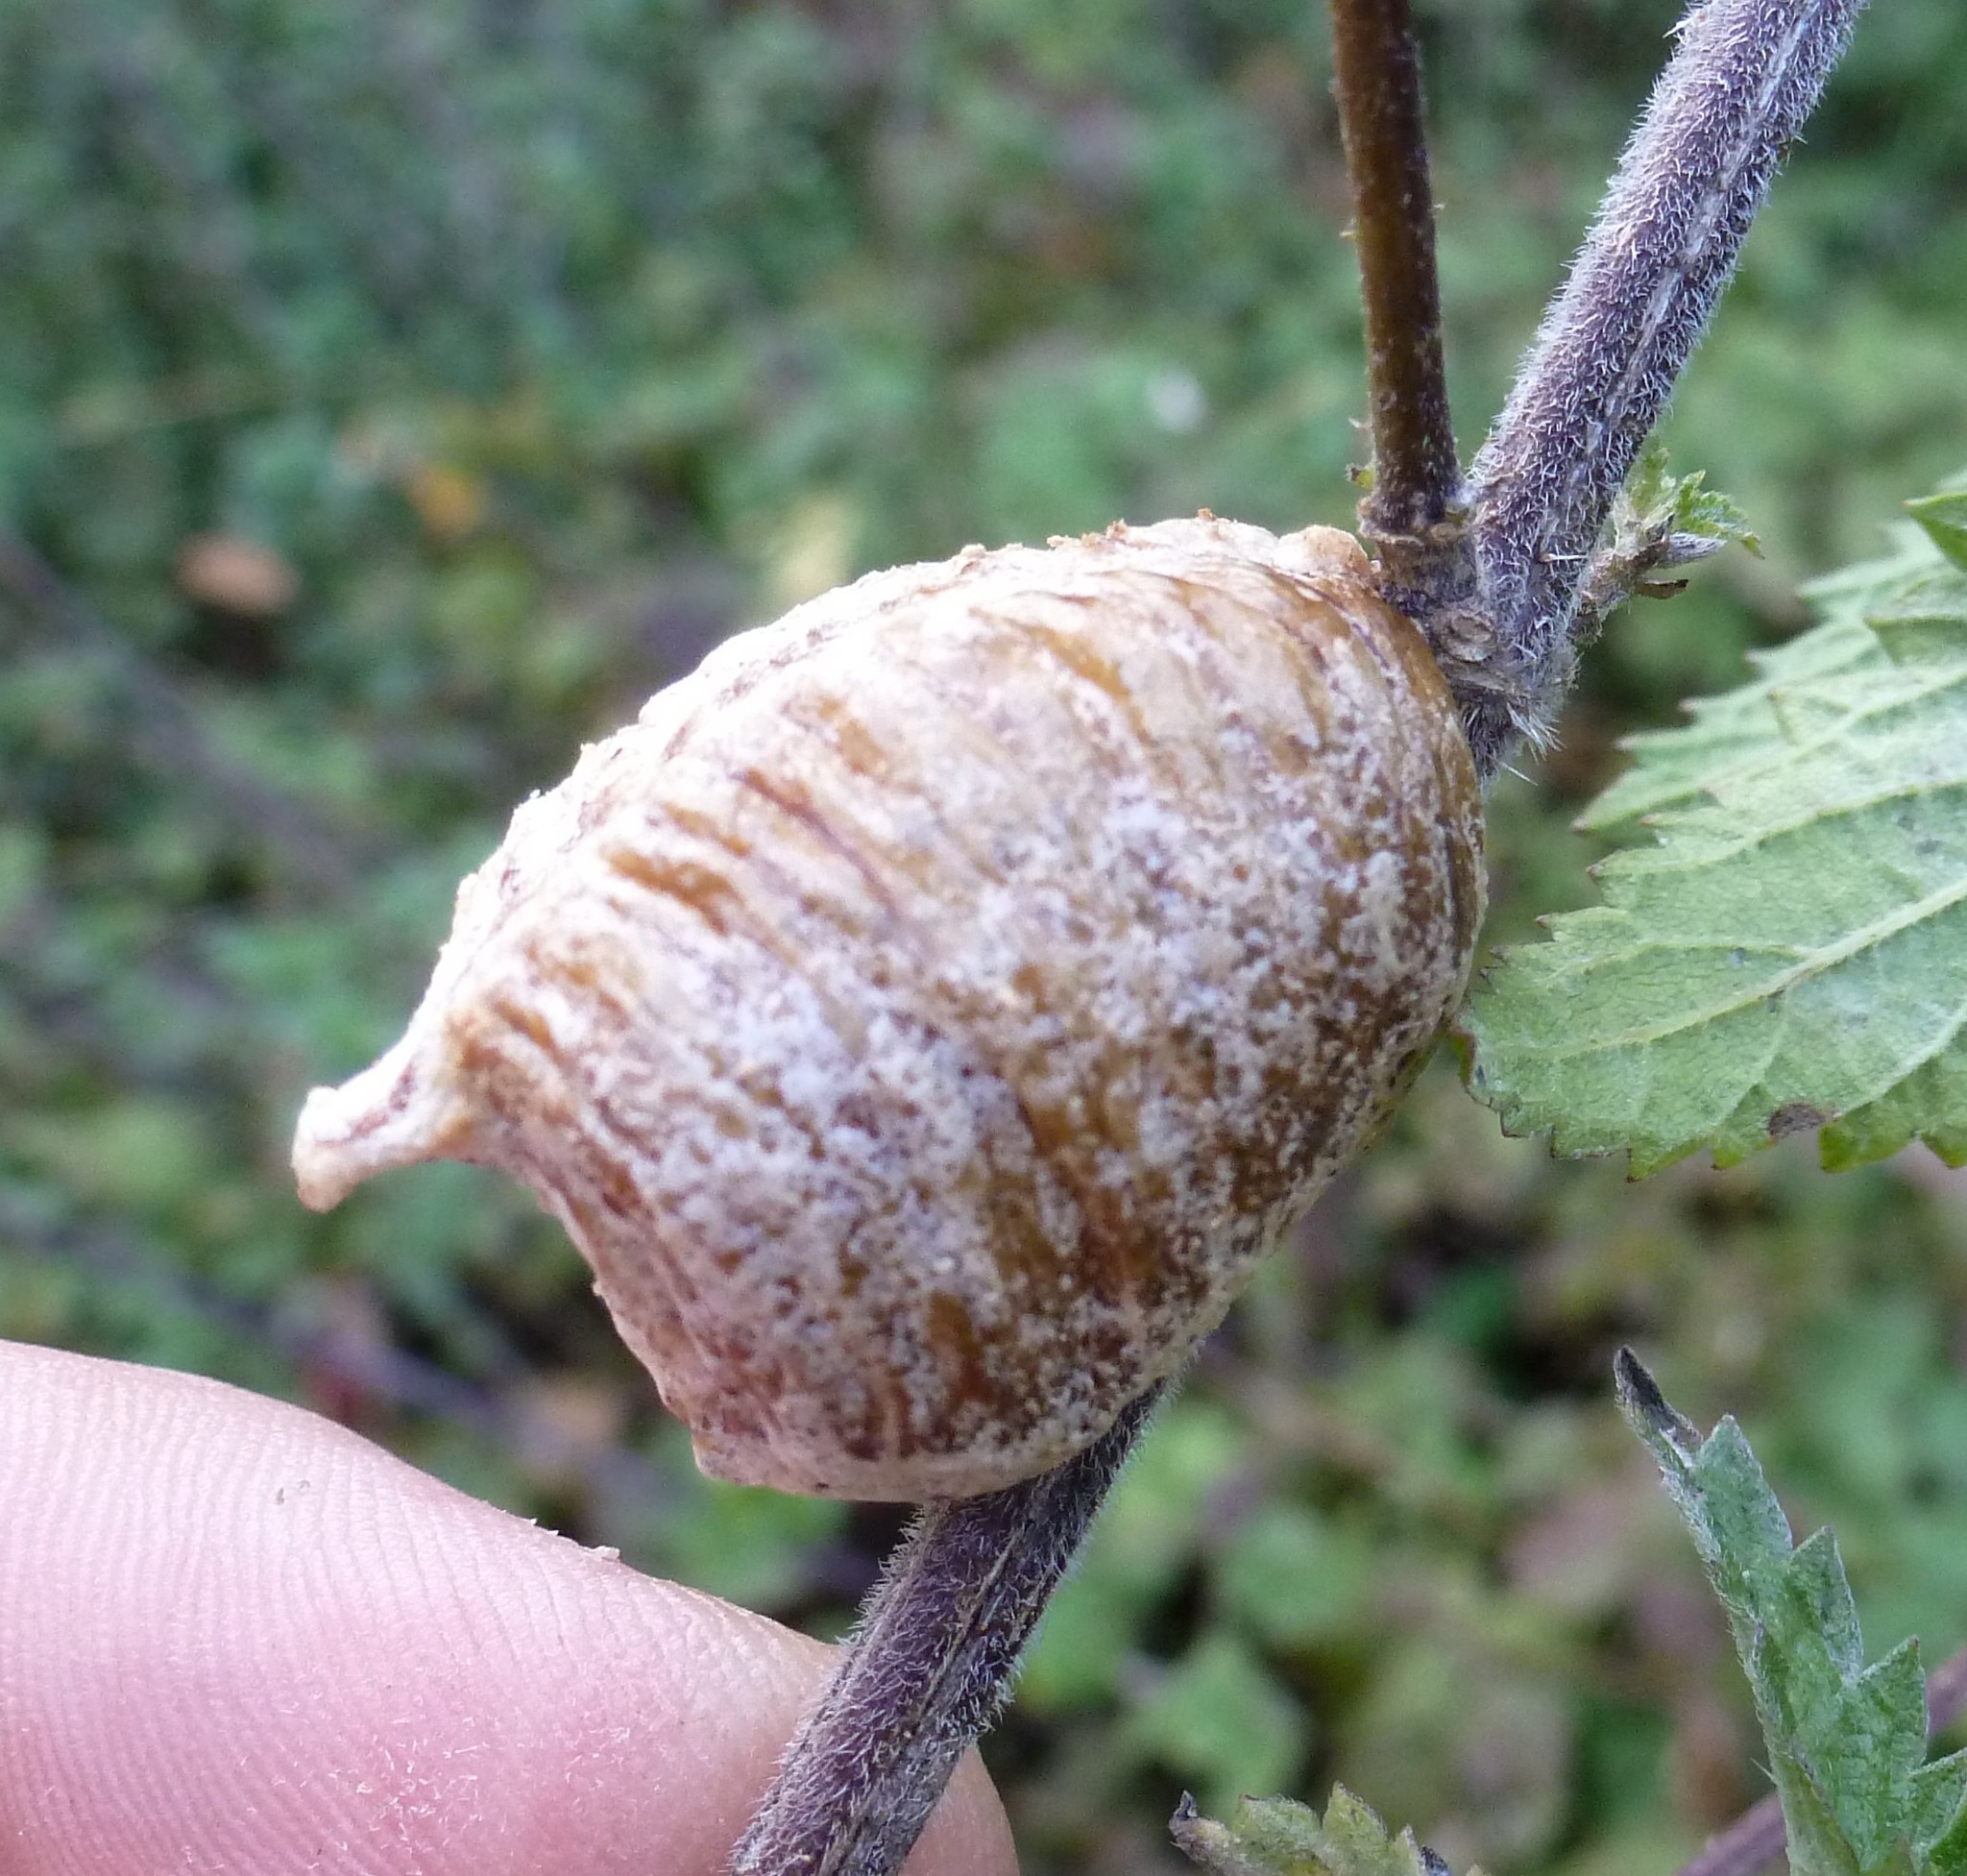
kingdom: Animalia
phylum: Arthropoda
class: Insecta
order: Mantodea
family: Mantidae
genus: Hierodula
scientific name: Hierodula transcaucasica
